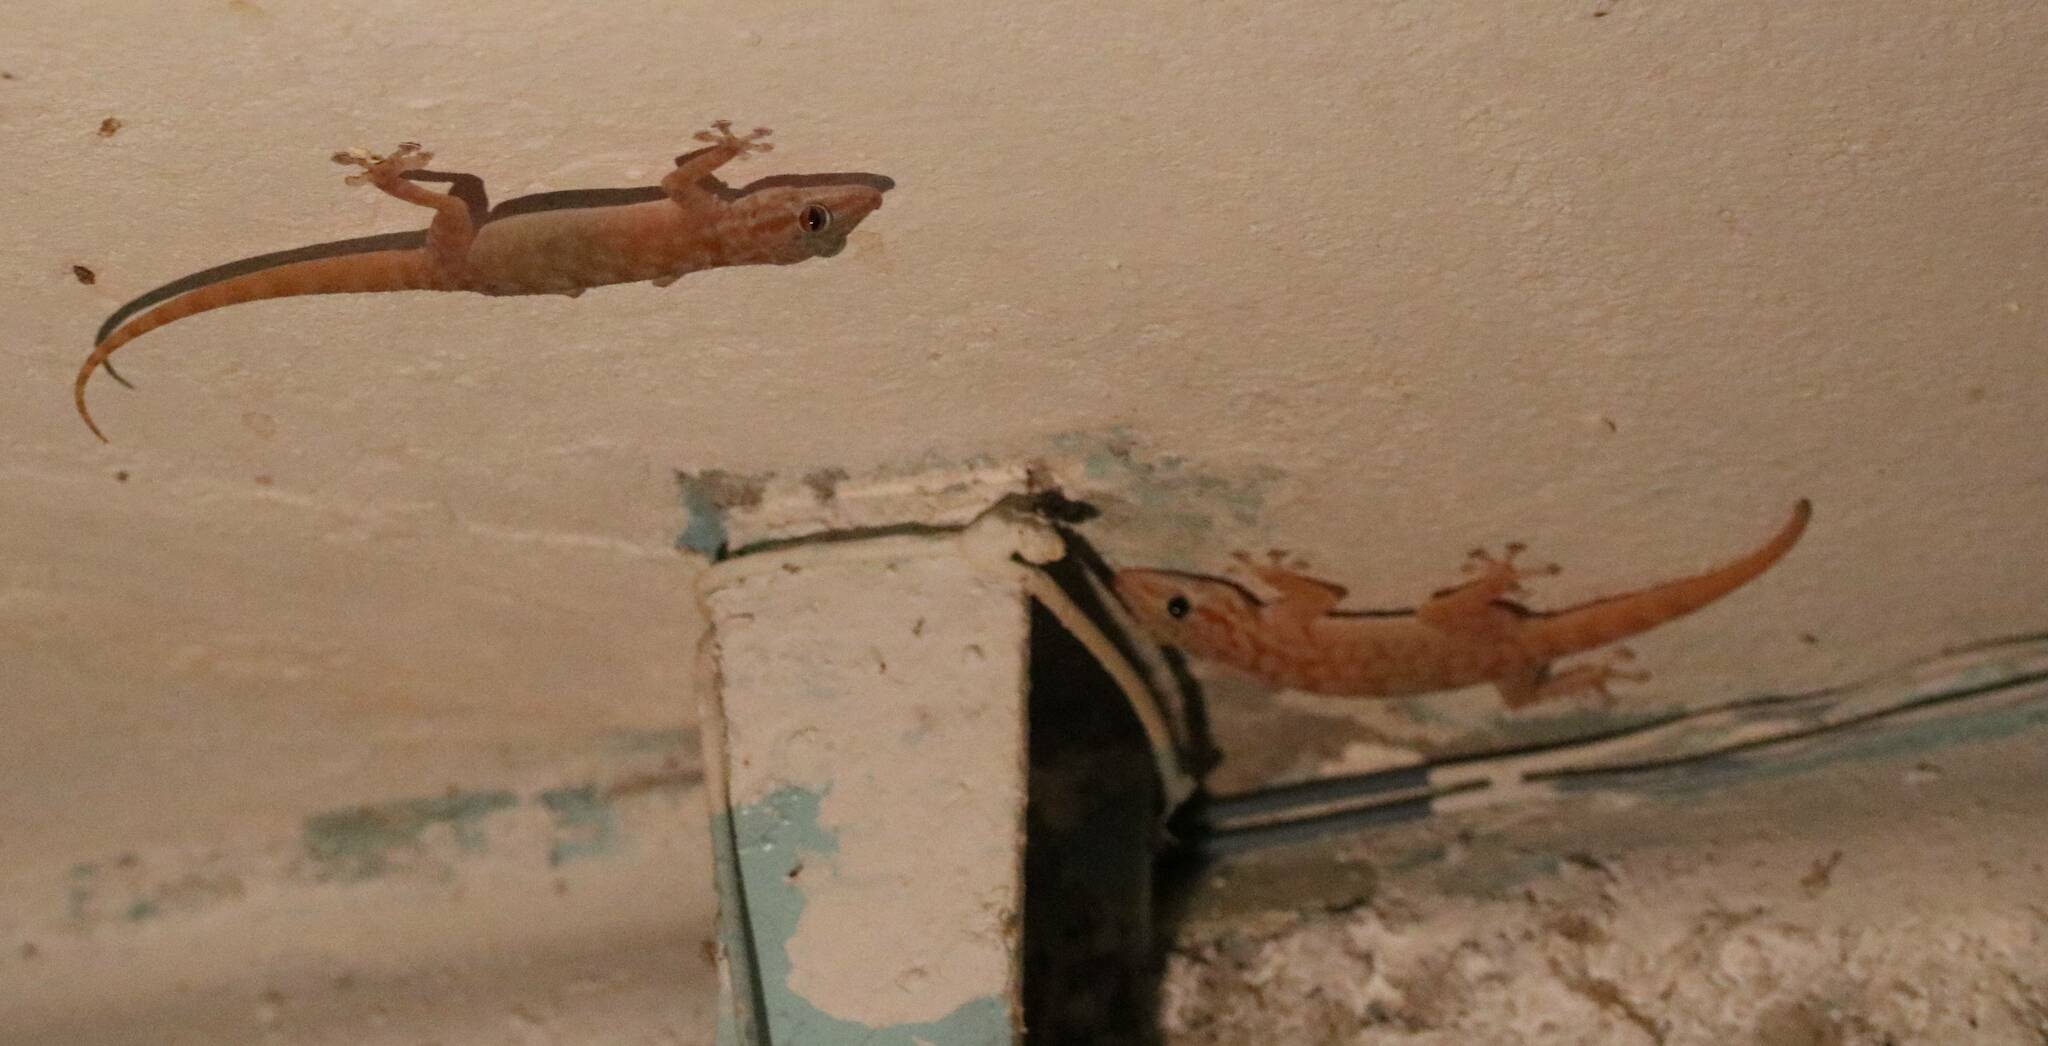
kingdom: Animalia
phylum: Chordata
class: Squamata
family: Phyllodactylidae
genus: Ptyodactylus
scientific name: Ptyodactylus togoensis
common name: Togo fan-footed gecko
